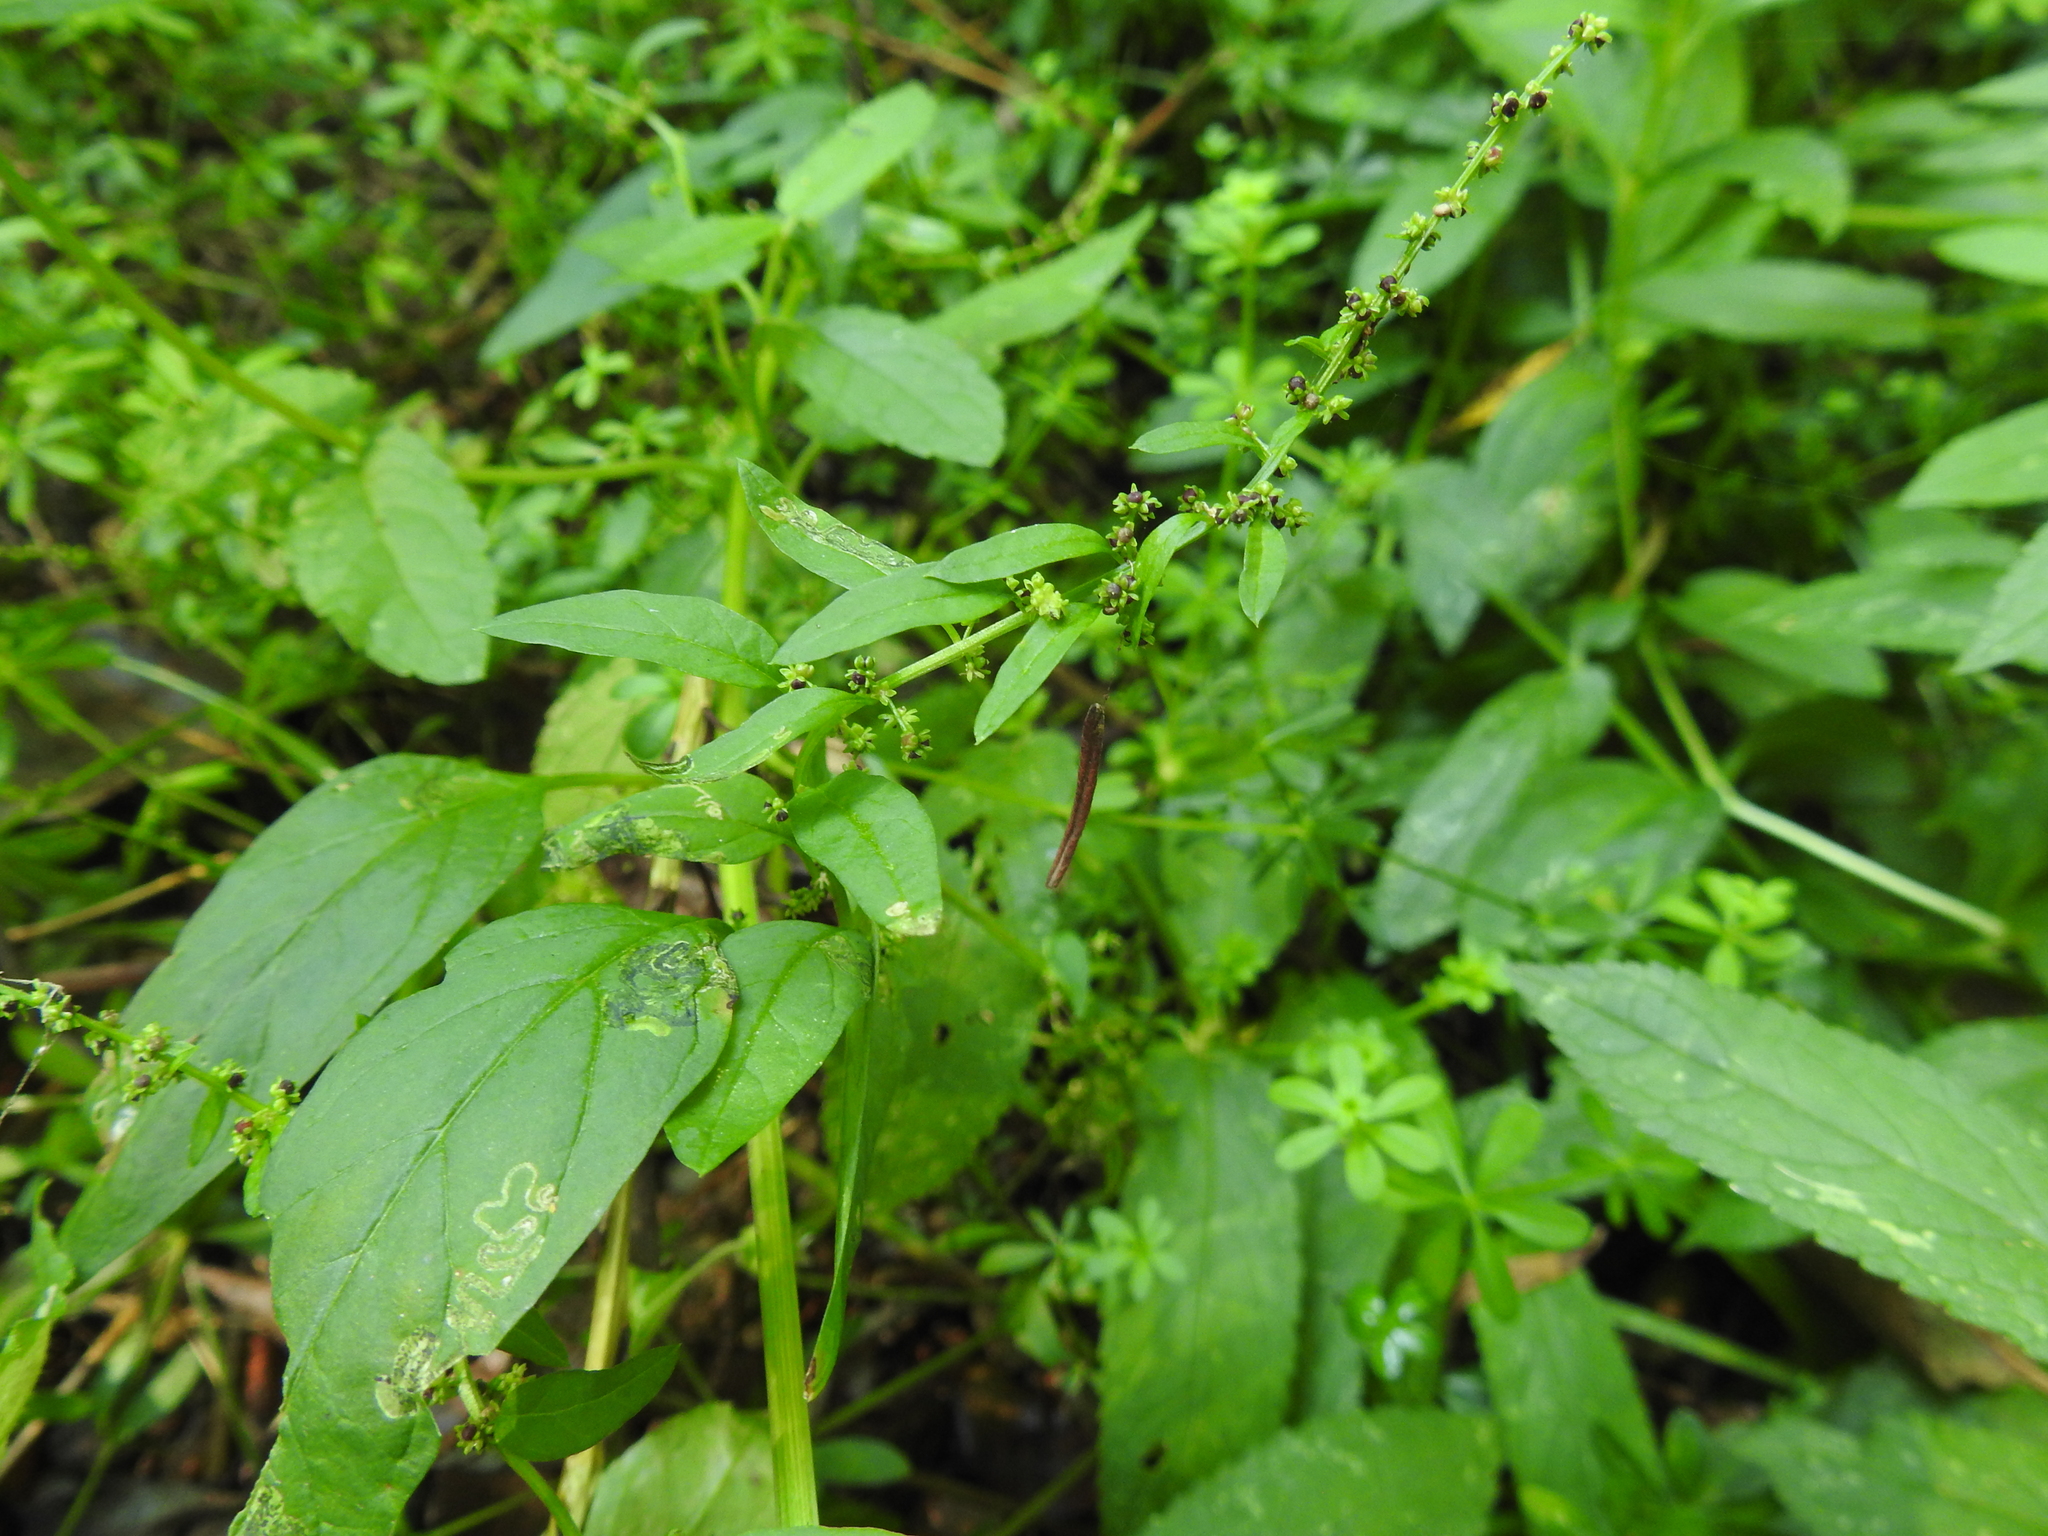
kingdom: Plantae
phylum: Tracheophyta
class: Magnoliopsida
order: Caryophyllales
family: Amaranthaceae
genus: Lipandra
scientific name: Lipandra polysperma
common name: Many-seed goosefoot
